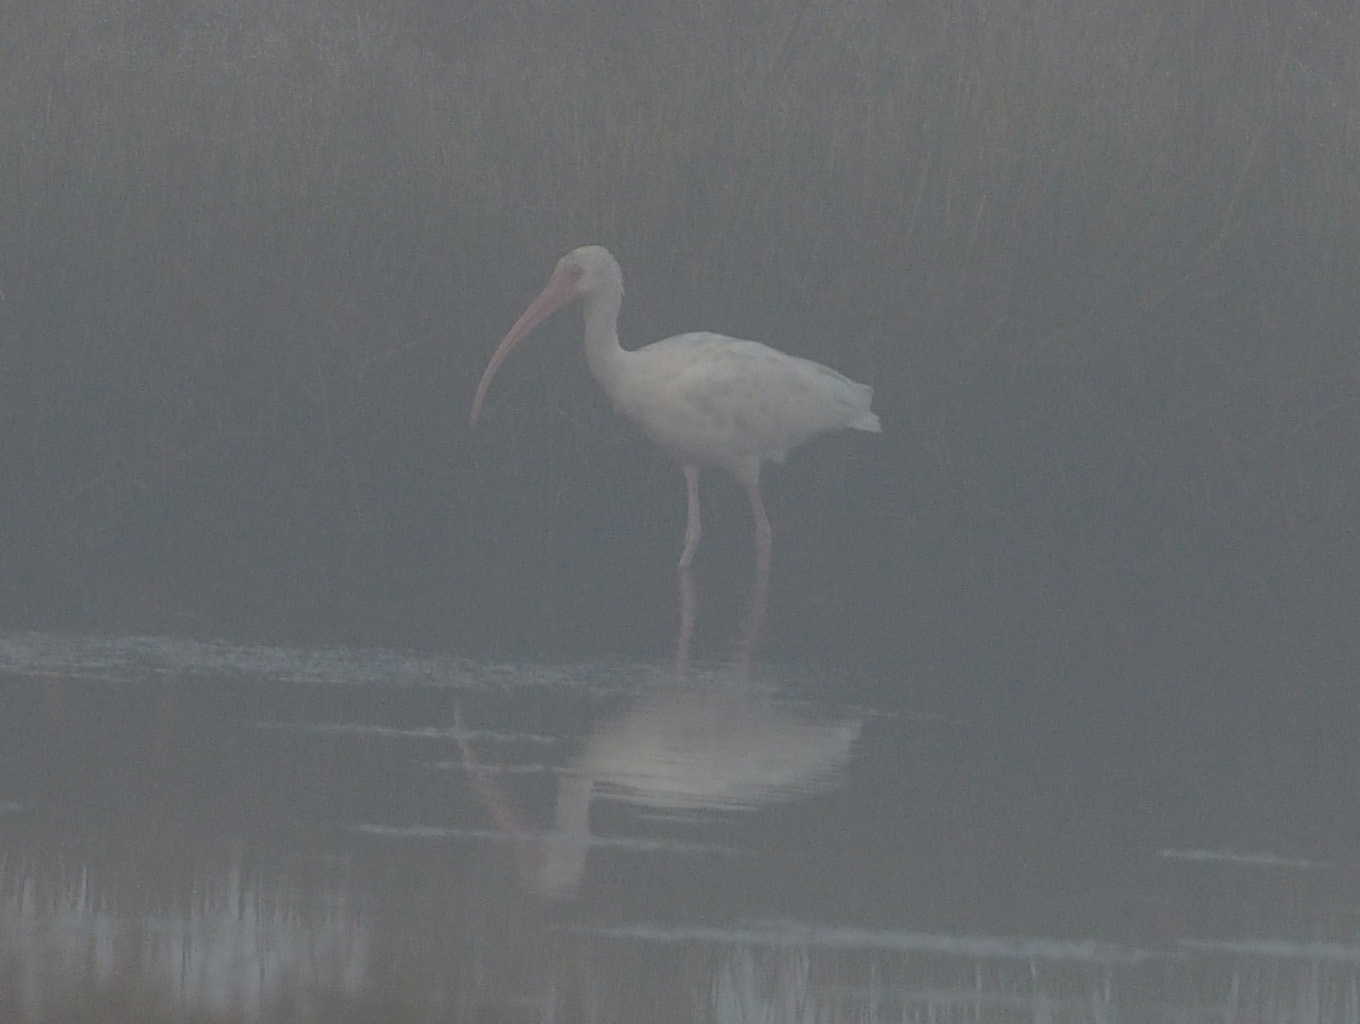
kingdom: Animalia
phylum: Chordata
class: Aves
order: Pelecaniformes
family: Threskiornithidae
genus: Eudocimus
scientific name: Eudocimus albus
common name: White ibis
